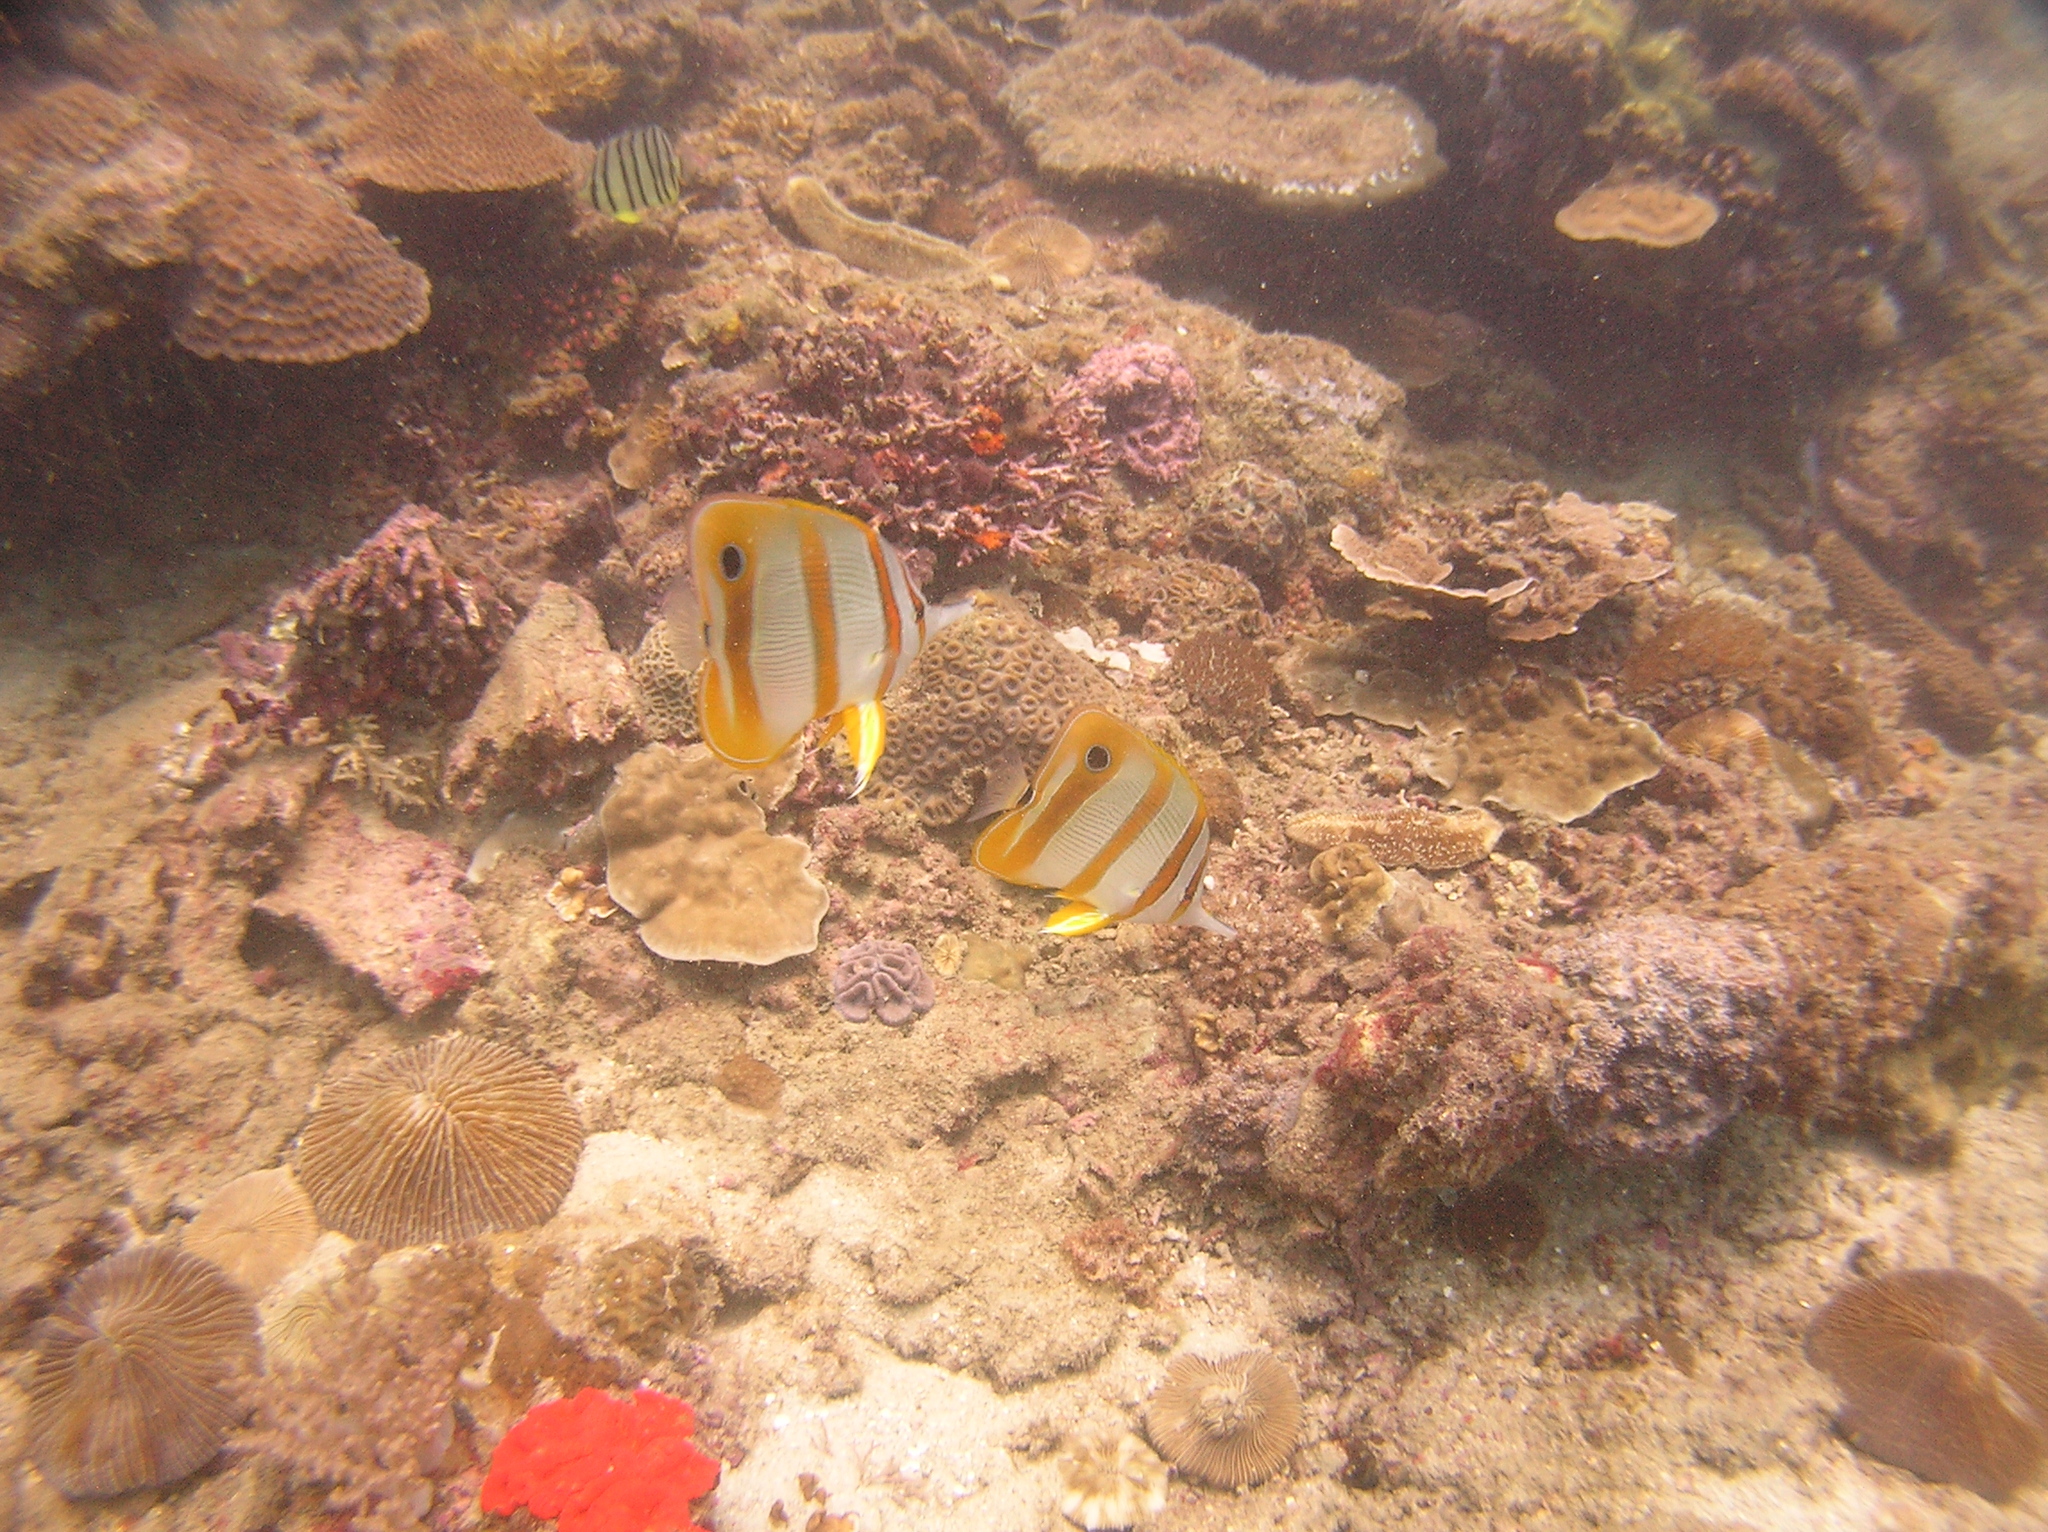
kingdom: Animalia
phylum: Chordata
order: Perciformes
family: Chaetodontidae
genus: Chelmon
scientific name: Chelmon rostratus
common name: Beaked butterflyfish
